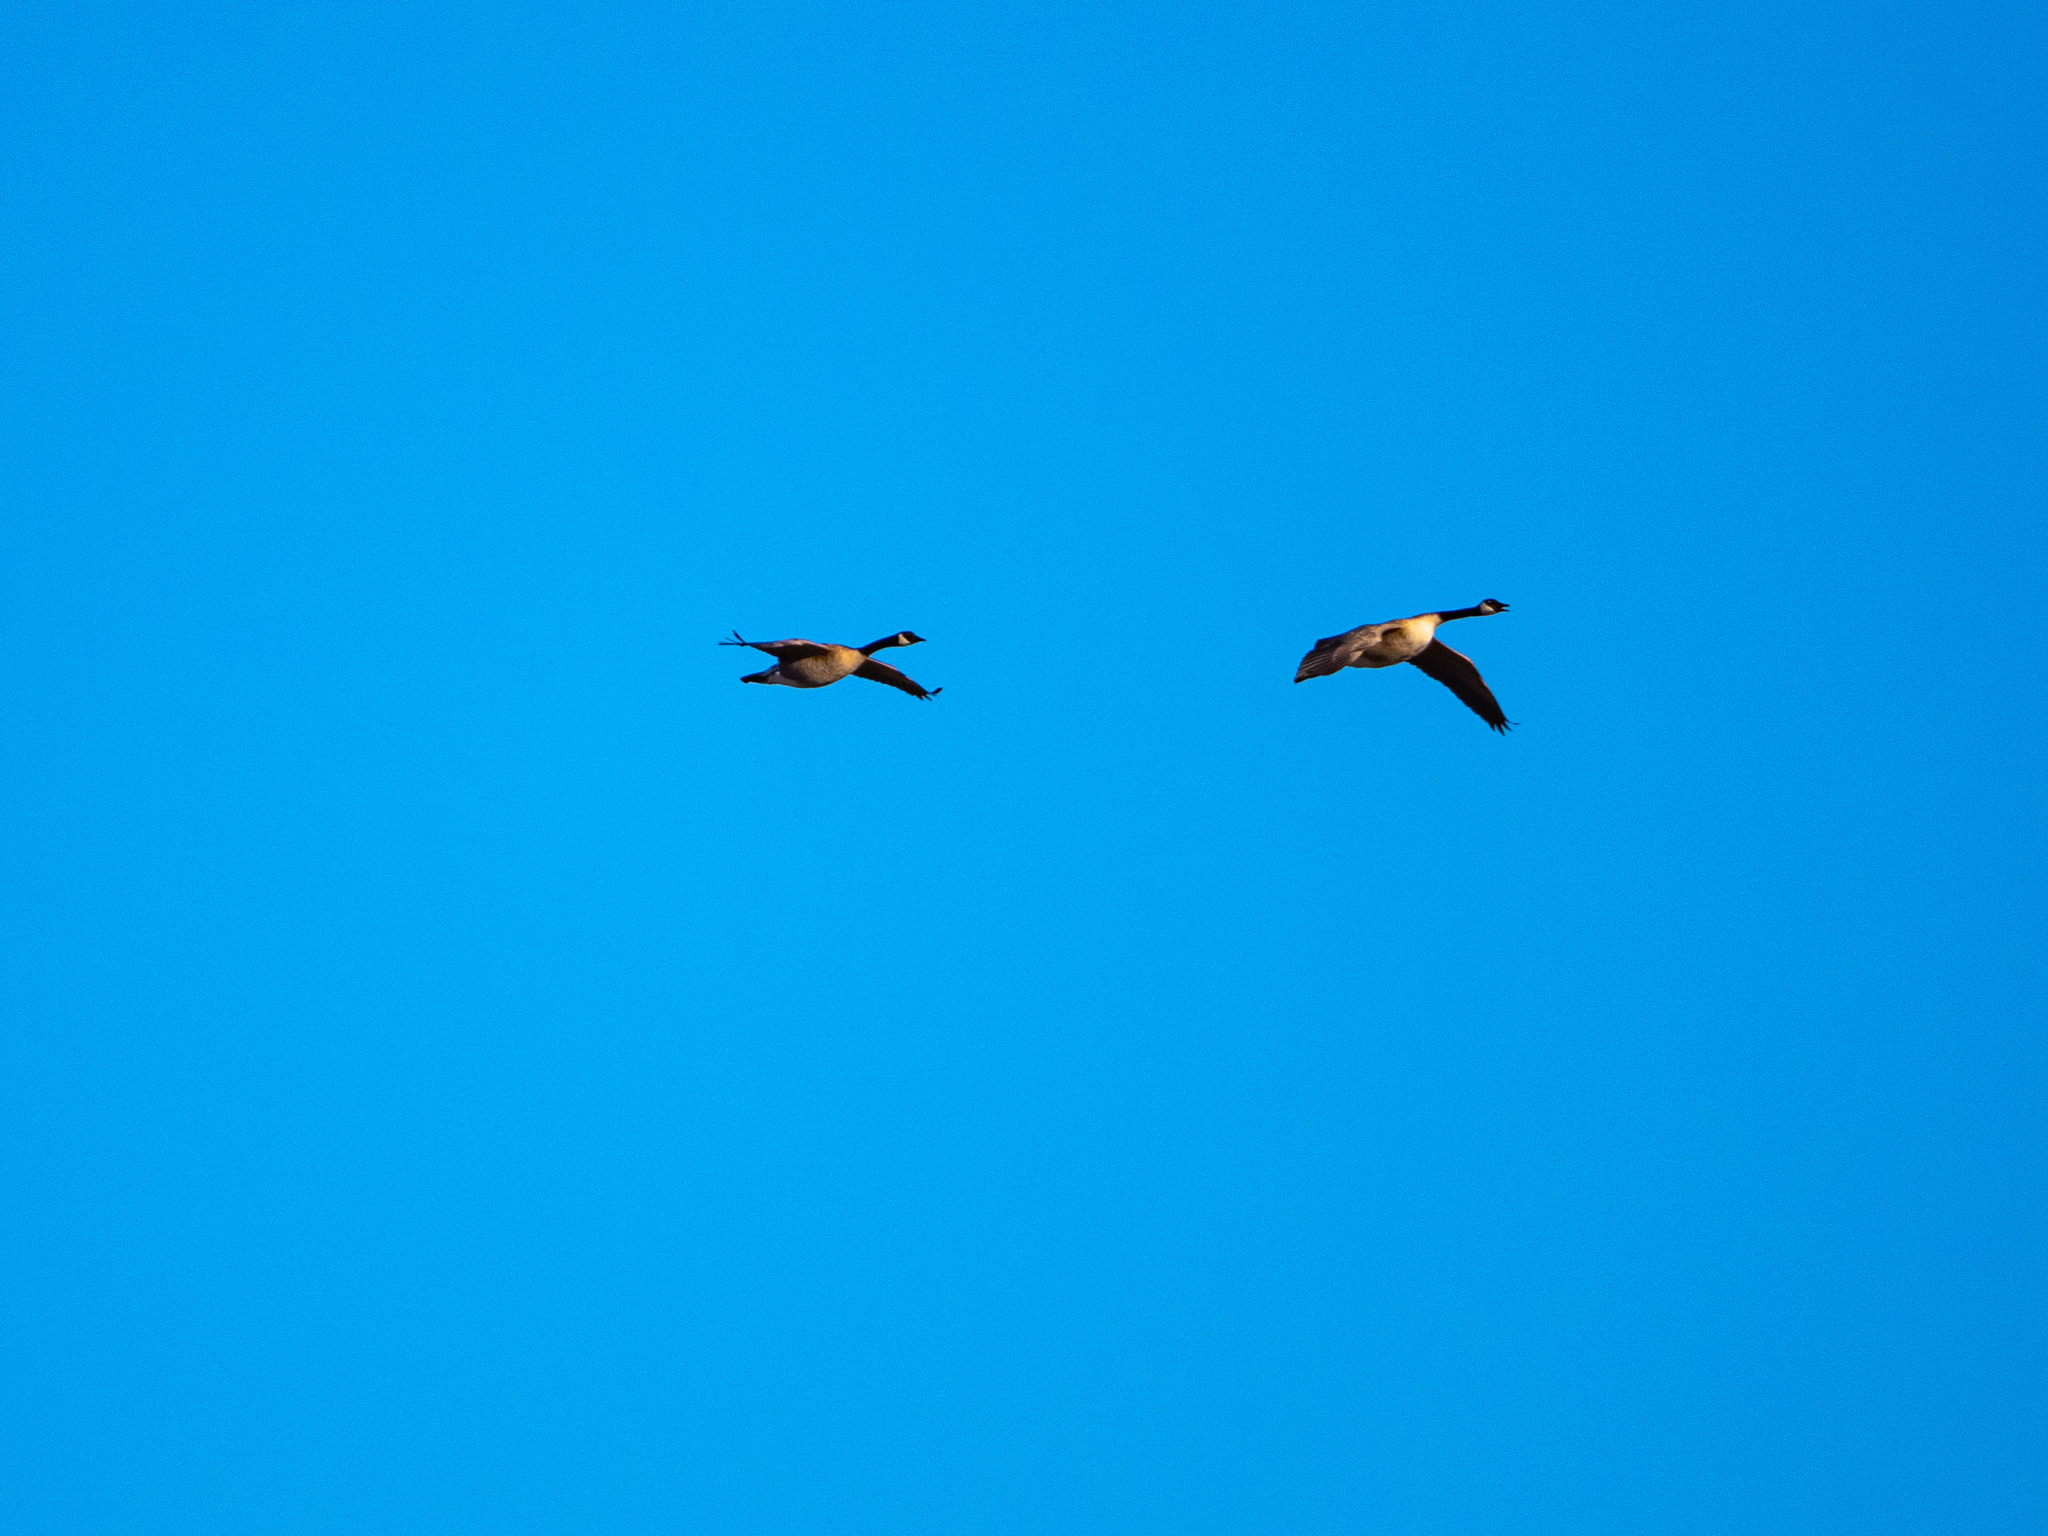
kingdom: Animalia
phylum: Chordata
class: Aves
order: Anseriformes
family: Anatidae
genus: Branta
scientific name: Branta canadensis
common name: Canada goose
